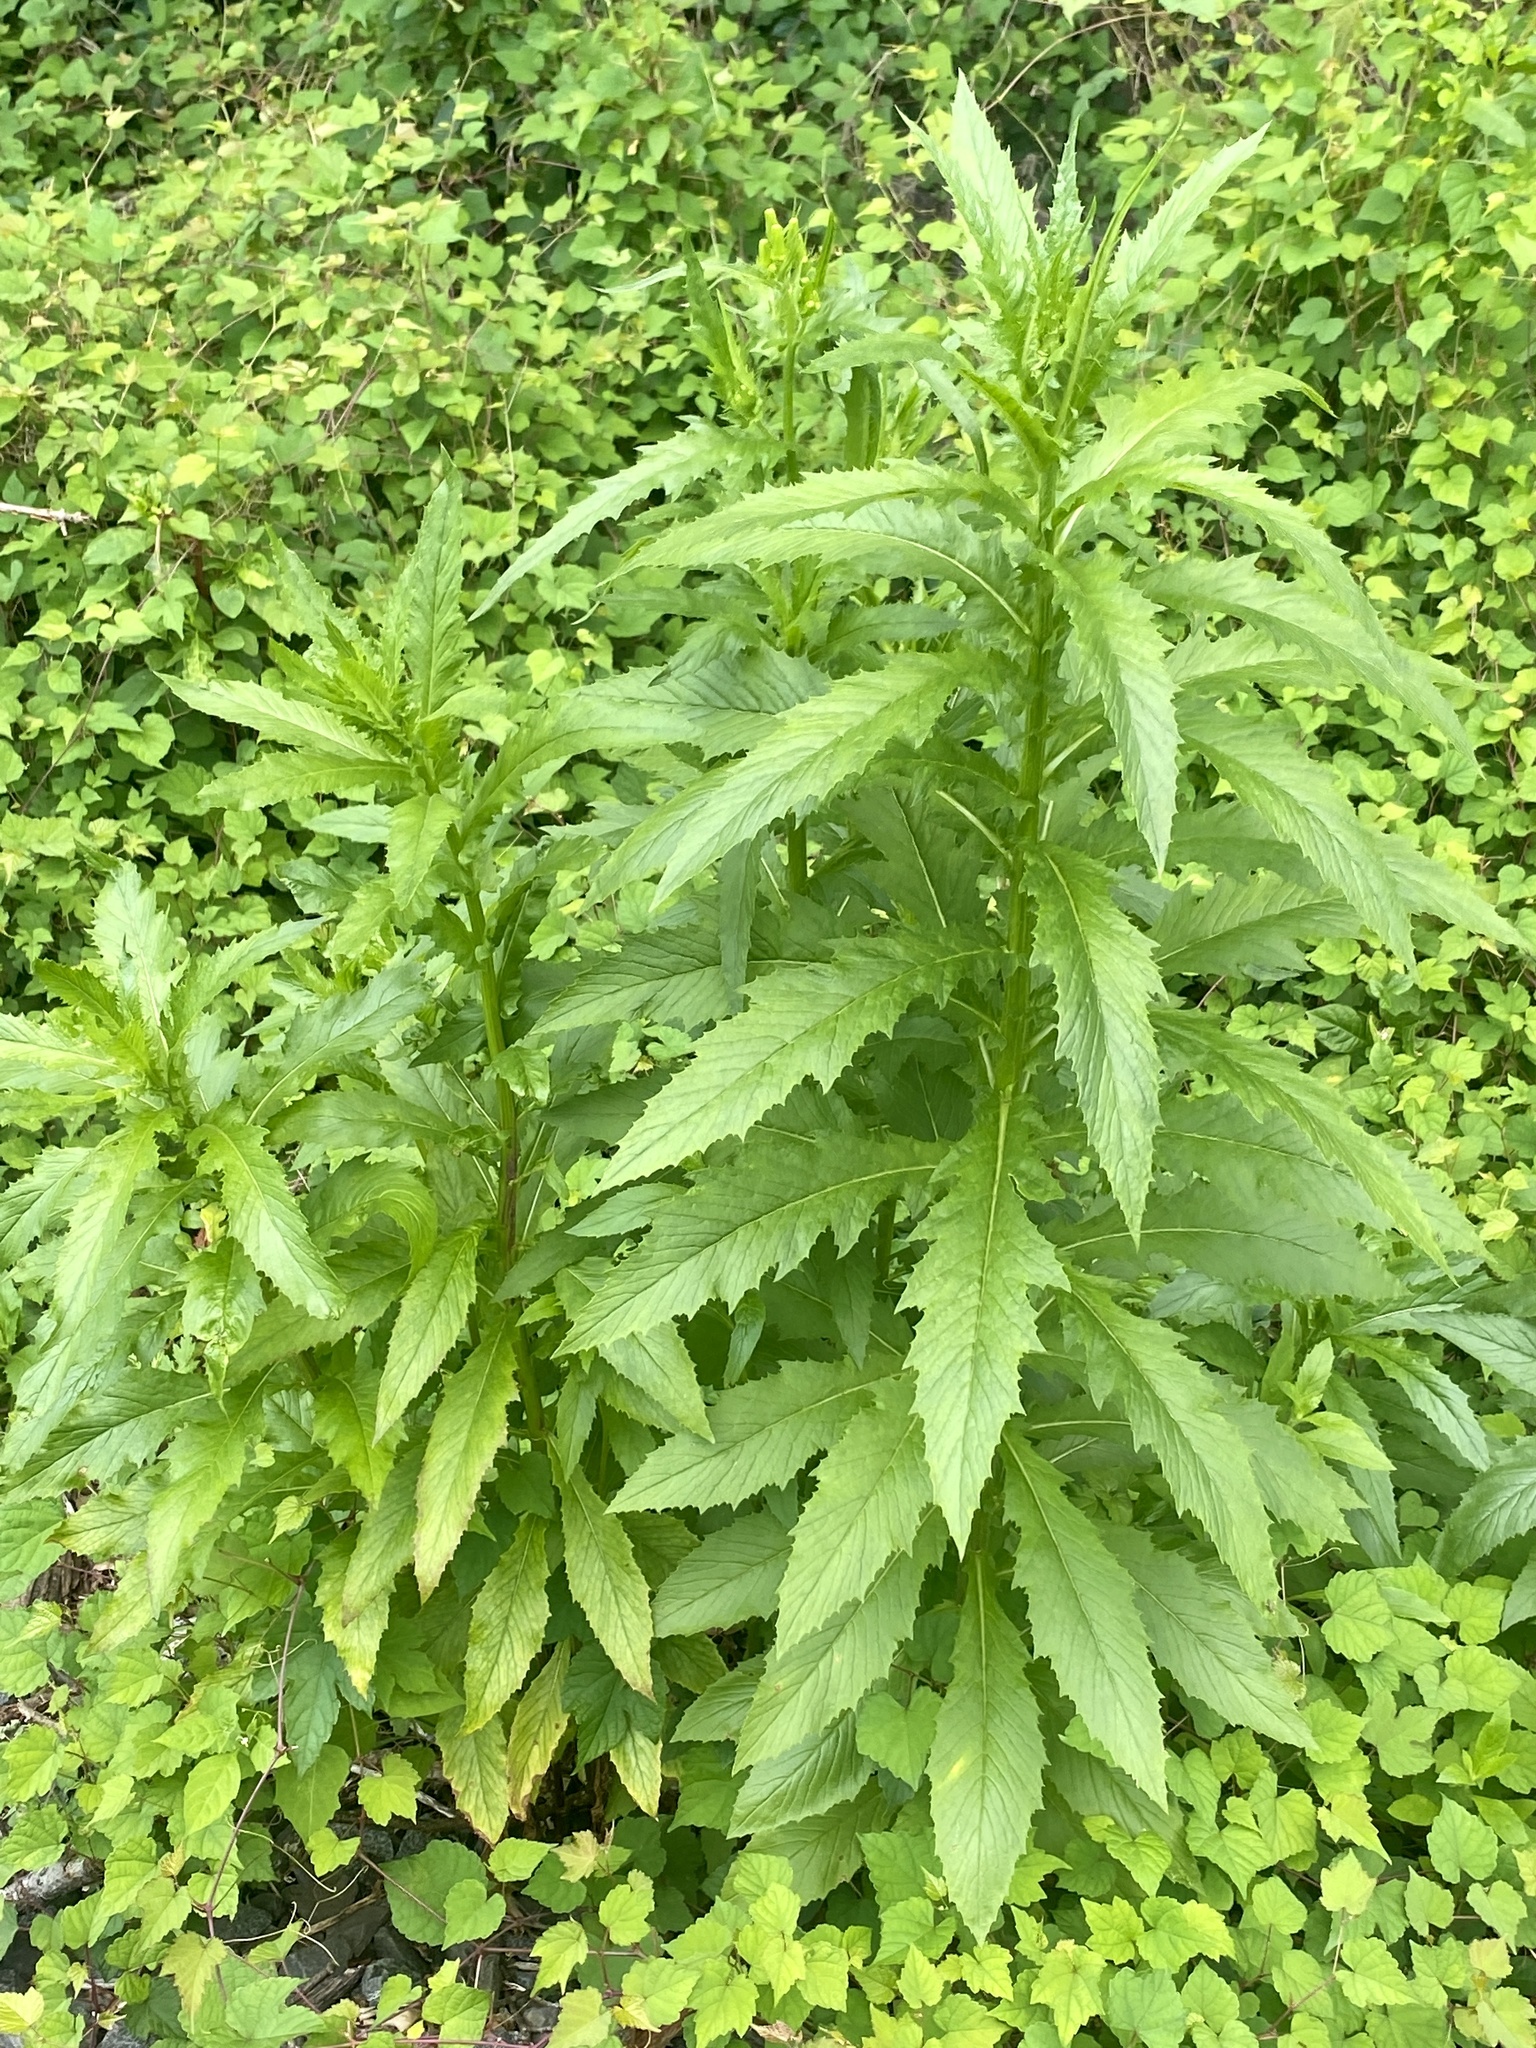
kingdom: Plantae
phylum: Tracheophyta
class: Magnoliopsida
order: Asterales
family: Asteraceae
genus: Erechtites
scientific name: Erechtites hieraciifolius
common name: American burnweed
